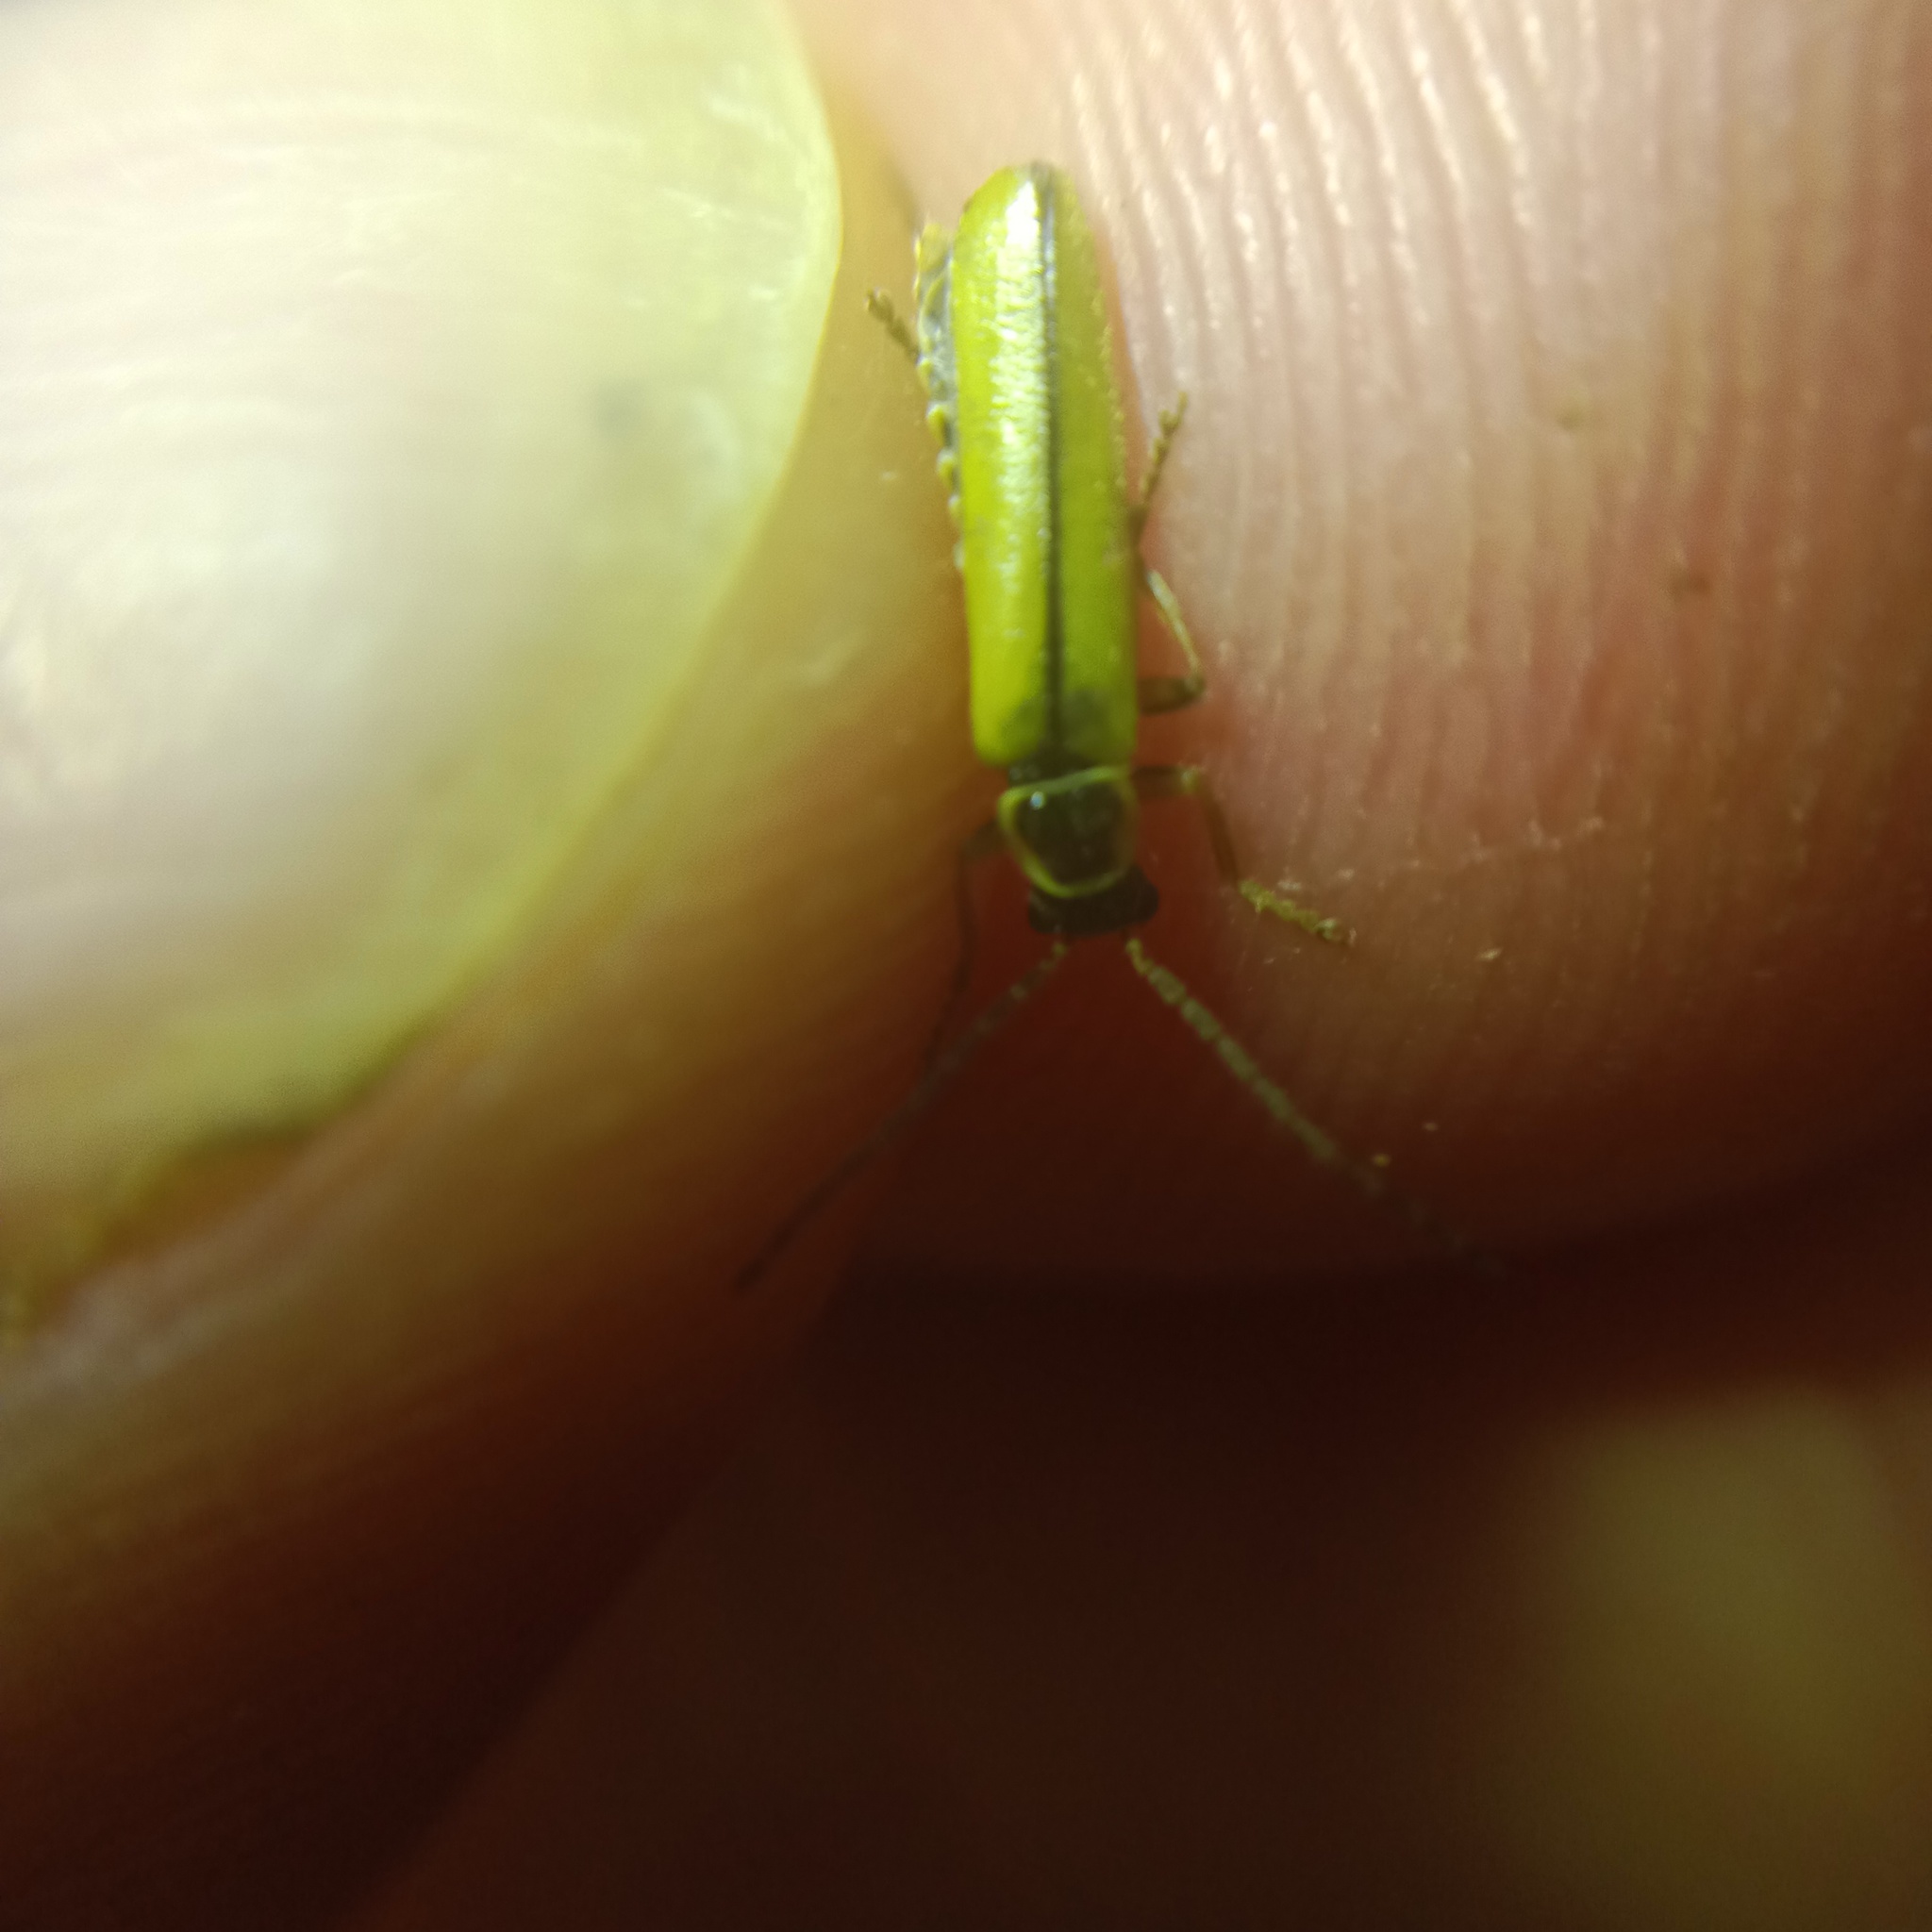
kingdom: Animalia
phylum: Arthropoda
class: Insecta
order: Coleoptera
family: Cantharidae
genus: Metacantharis
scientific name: Metacantharis clypeata
